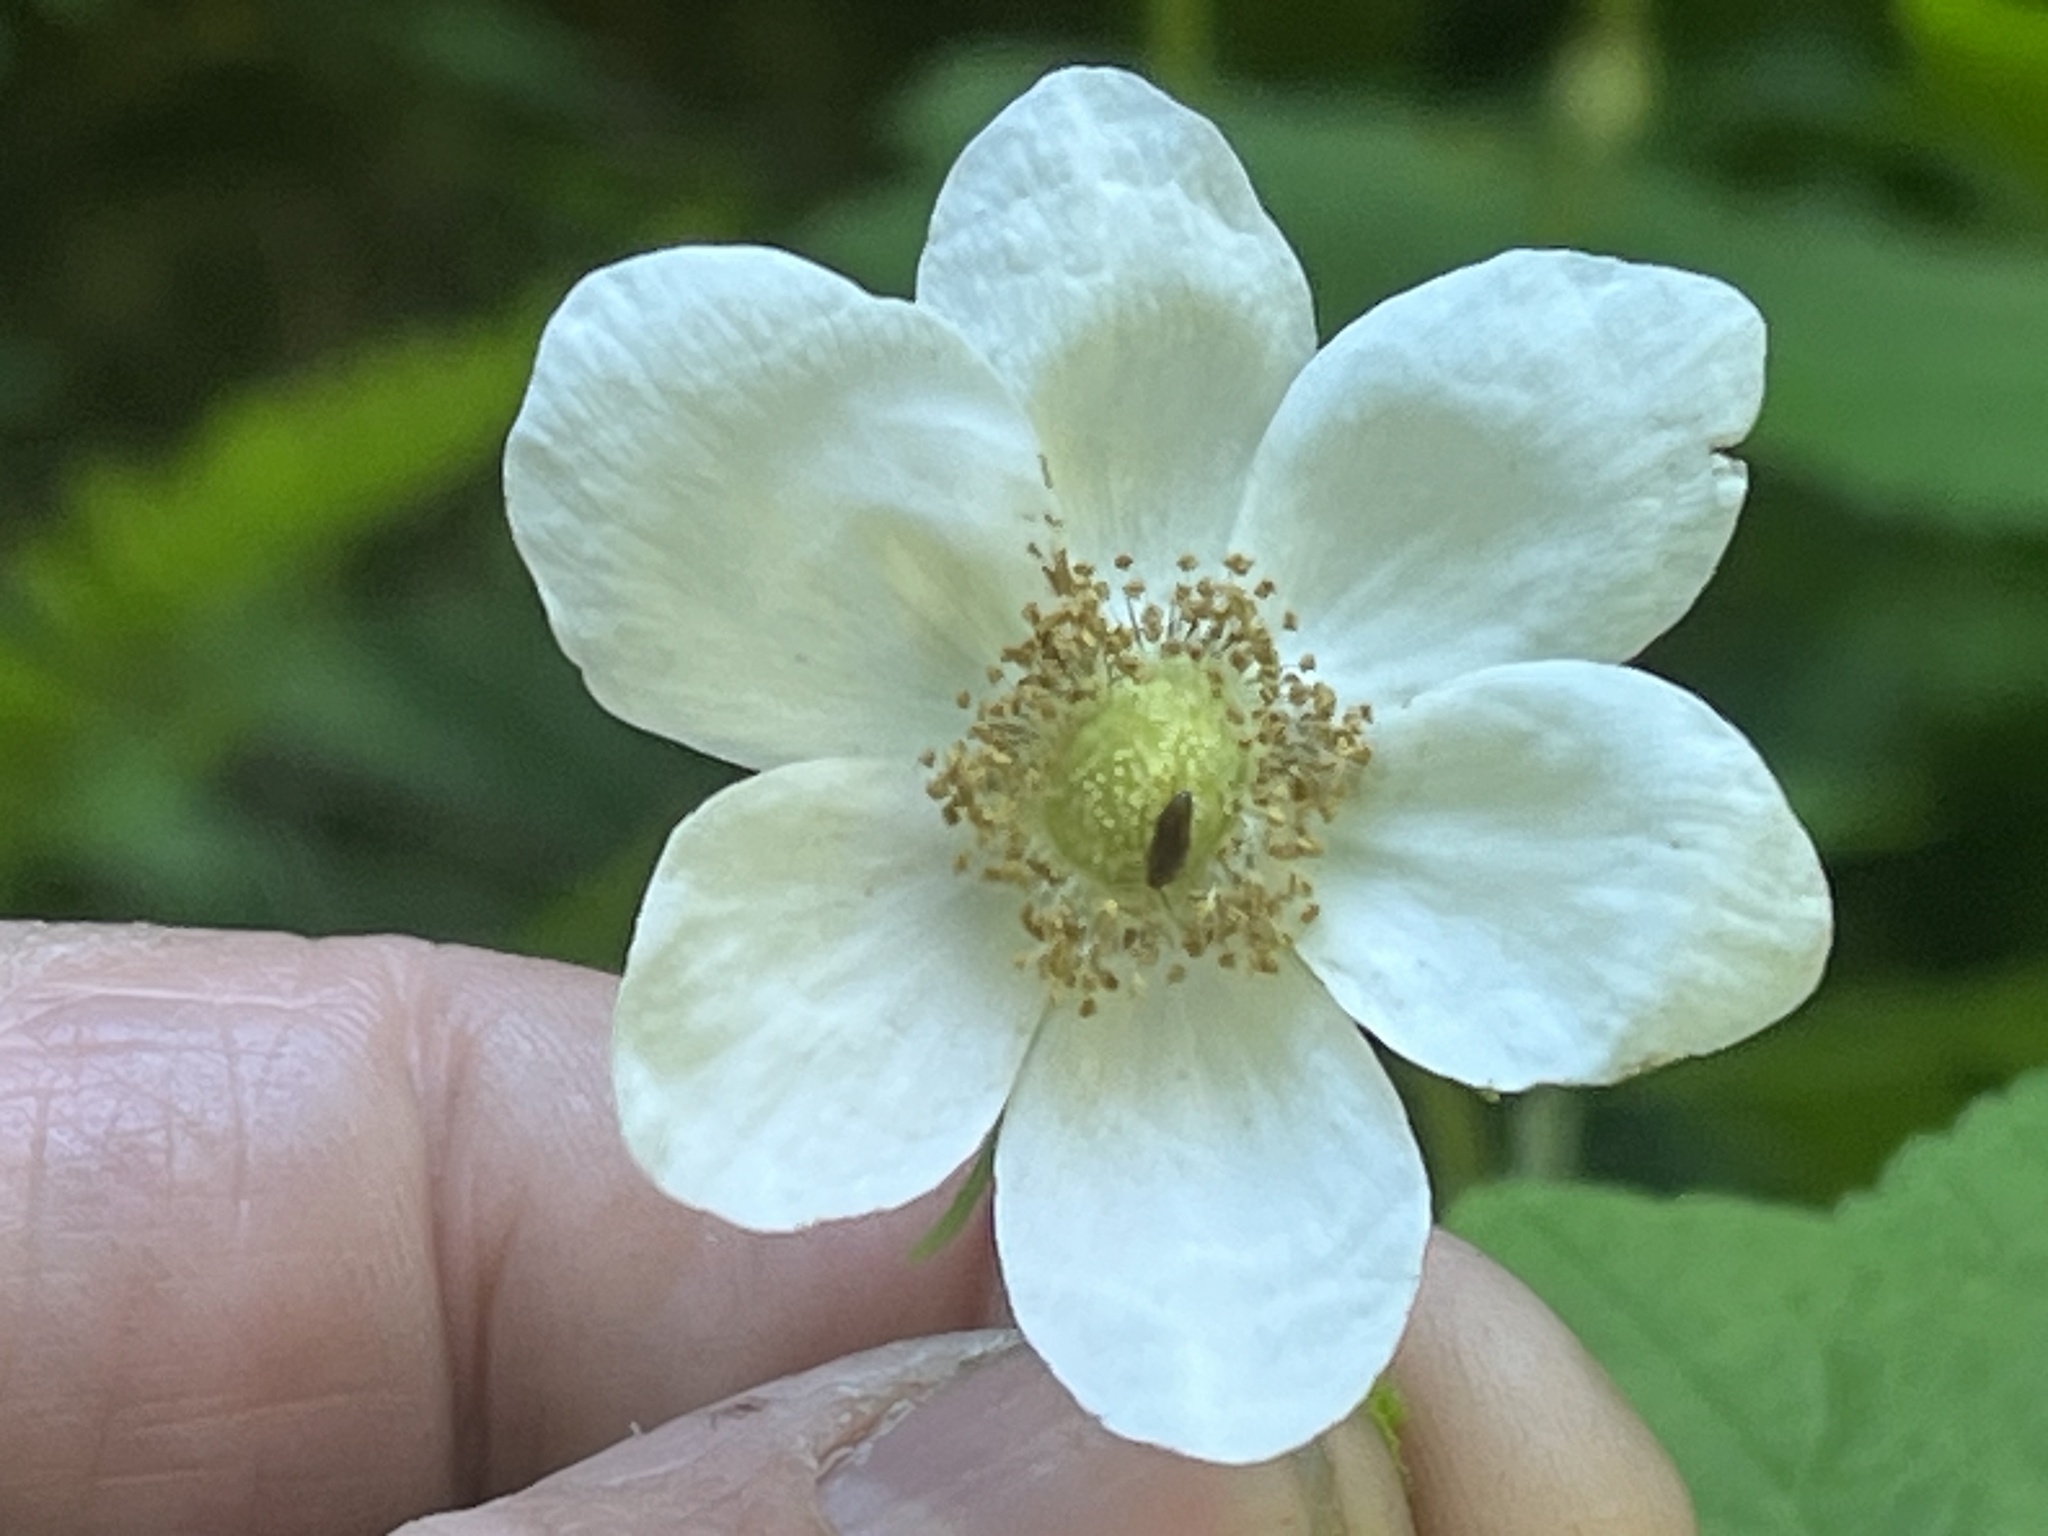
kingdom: Plantae
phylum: Tracheophyta
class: Magnoliopsida
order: Rosales
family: Rosaceae
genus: Rubus
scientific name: Rubus parviflorus
